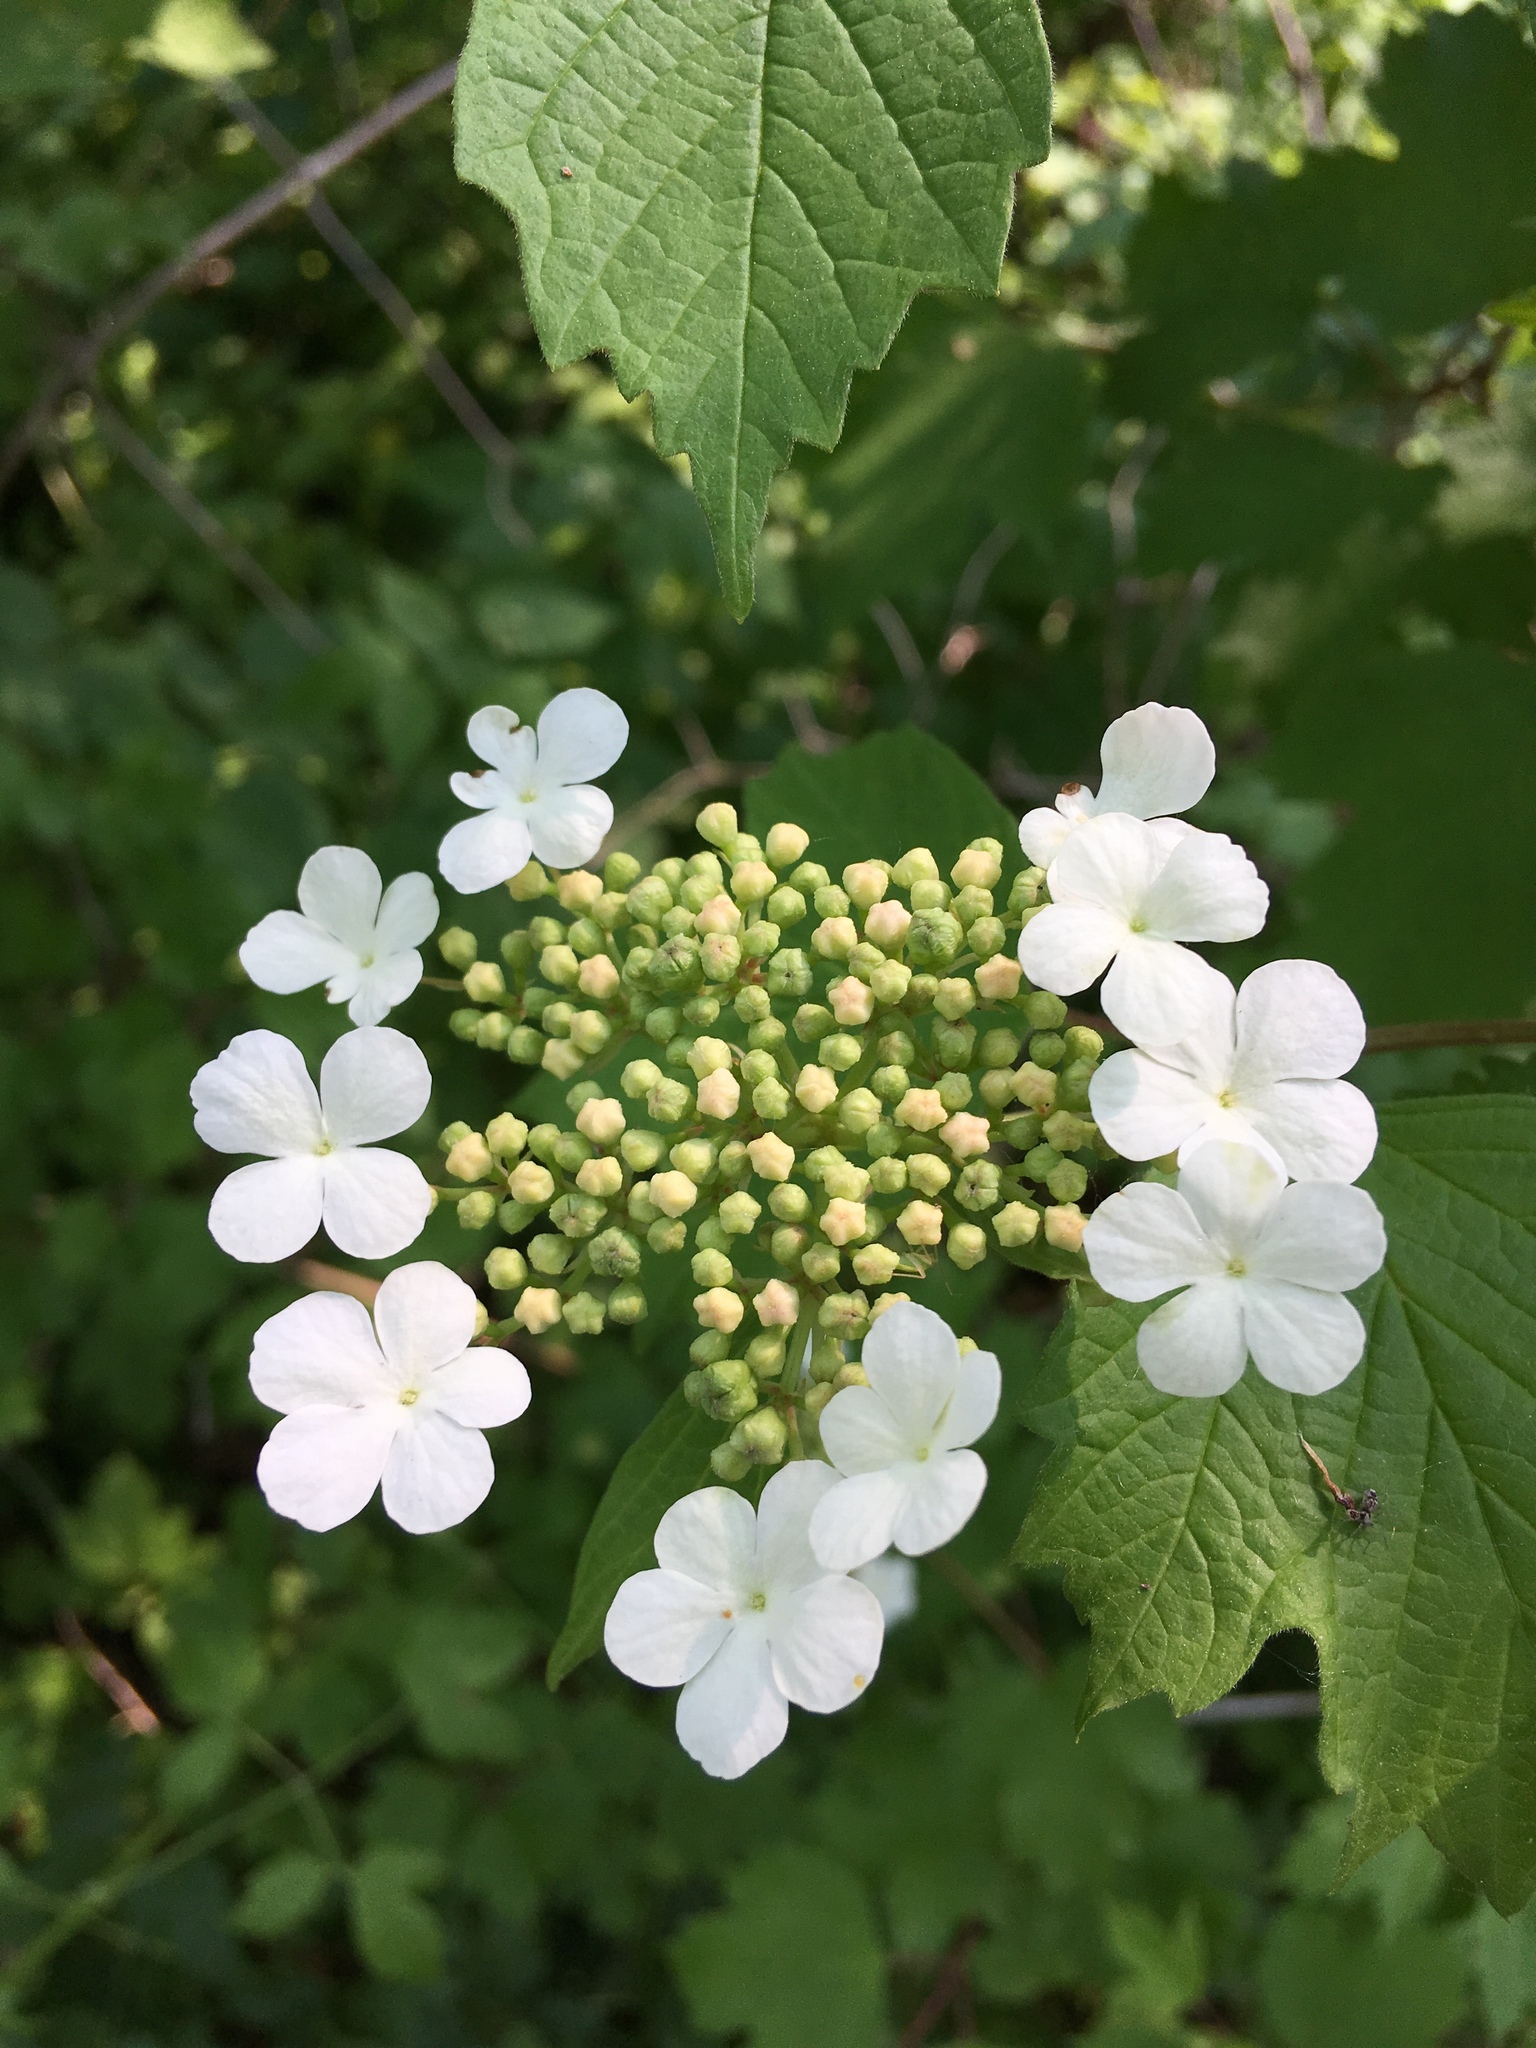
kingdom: Plantae
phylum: Tracheophyta
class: Magnoliopsida
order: Dipsacales
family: Viburnaceae
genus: Viburnum
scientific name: Viburnum opulus
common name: Guelder-rose
